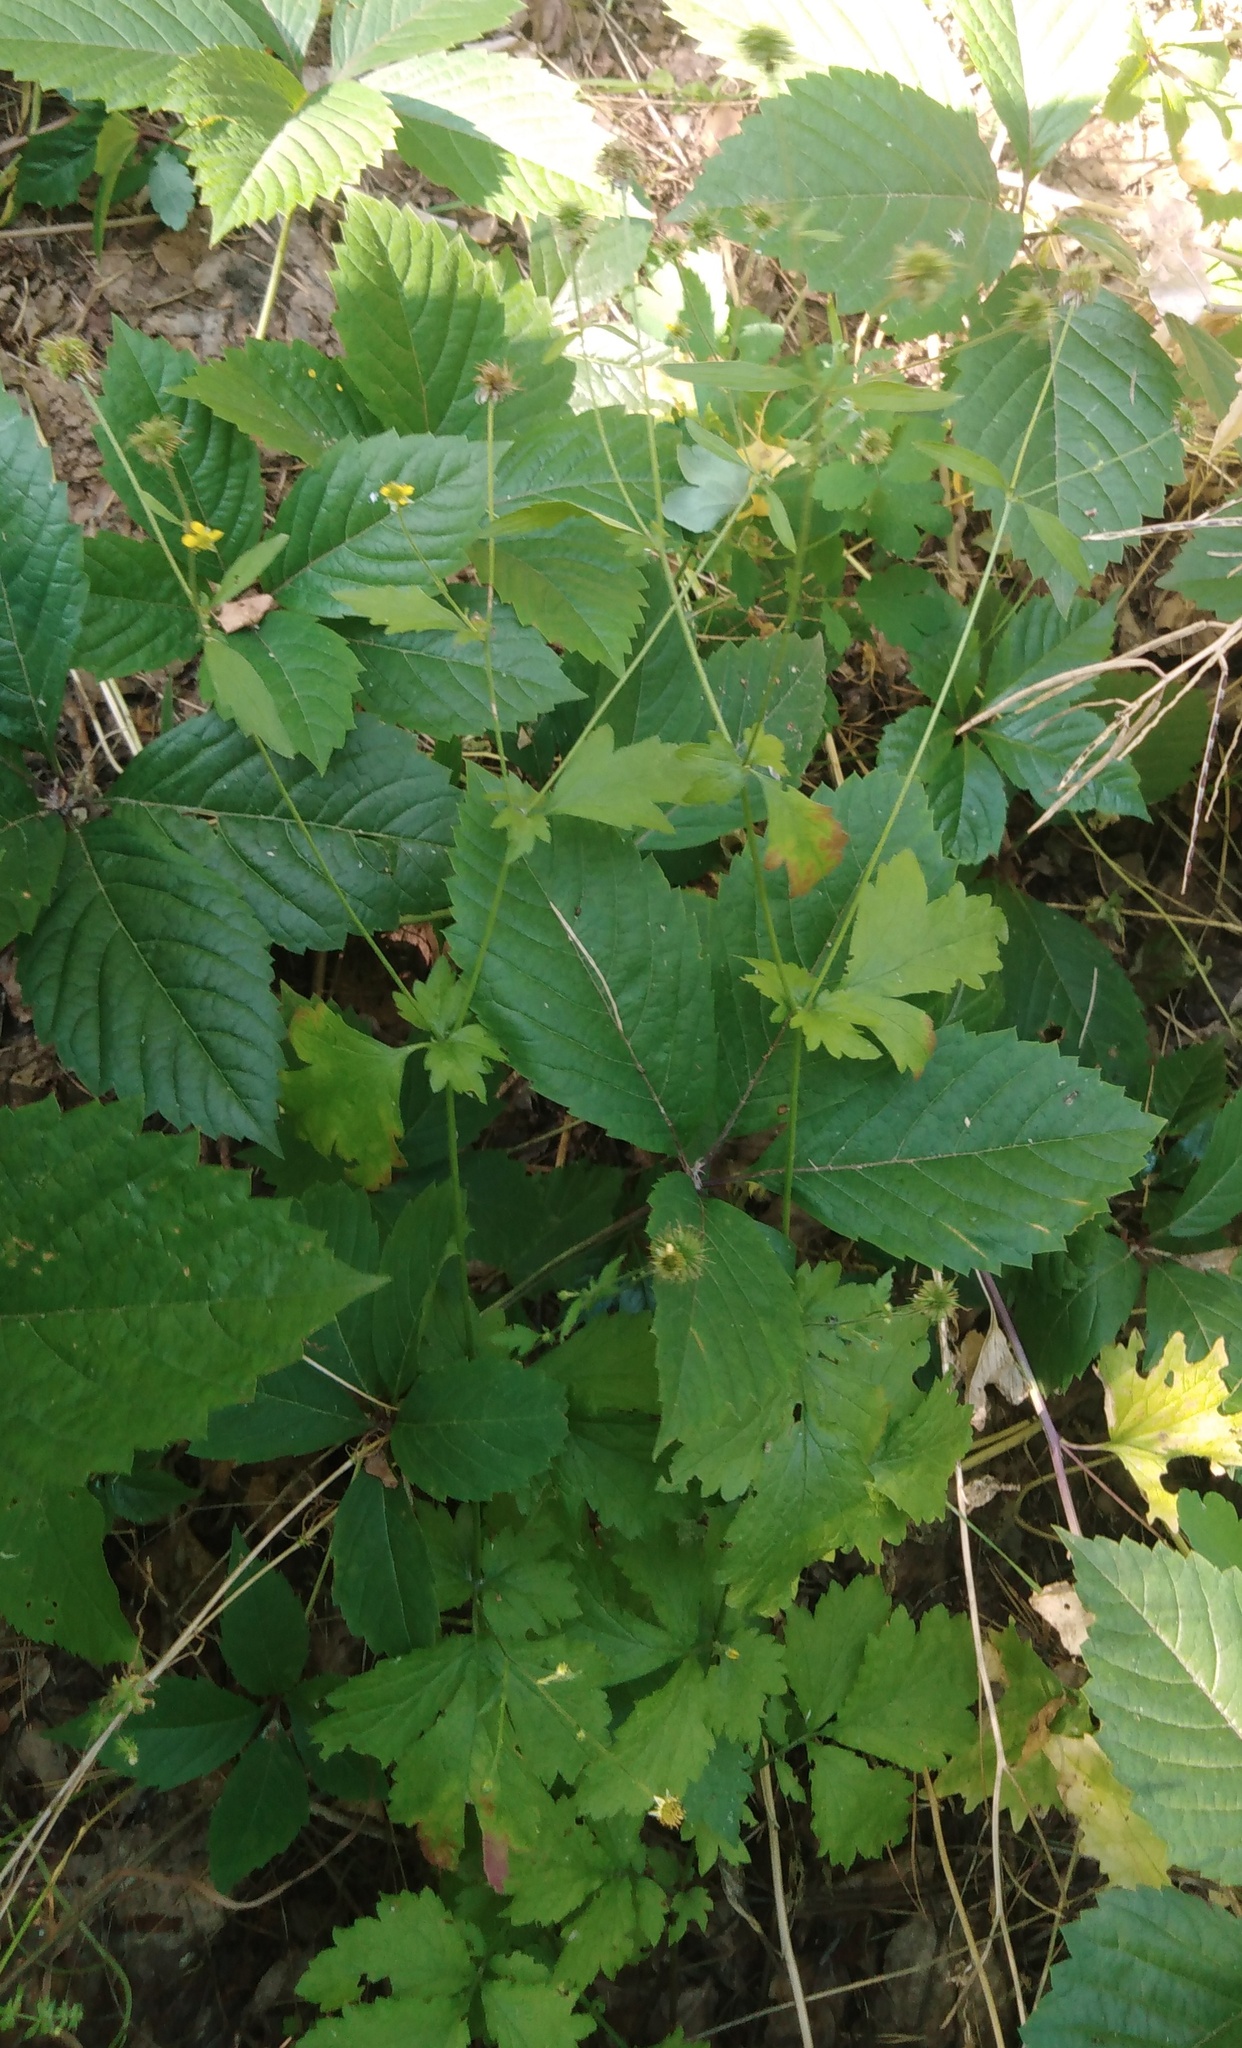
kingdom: Plantae
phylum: Tracheophyta
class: Magnoliopsida
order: Rosales
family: Rosaceae
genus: Geum
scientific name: Geum urbanum
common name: Wood avens
